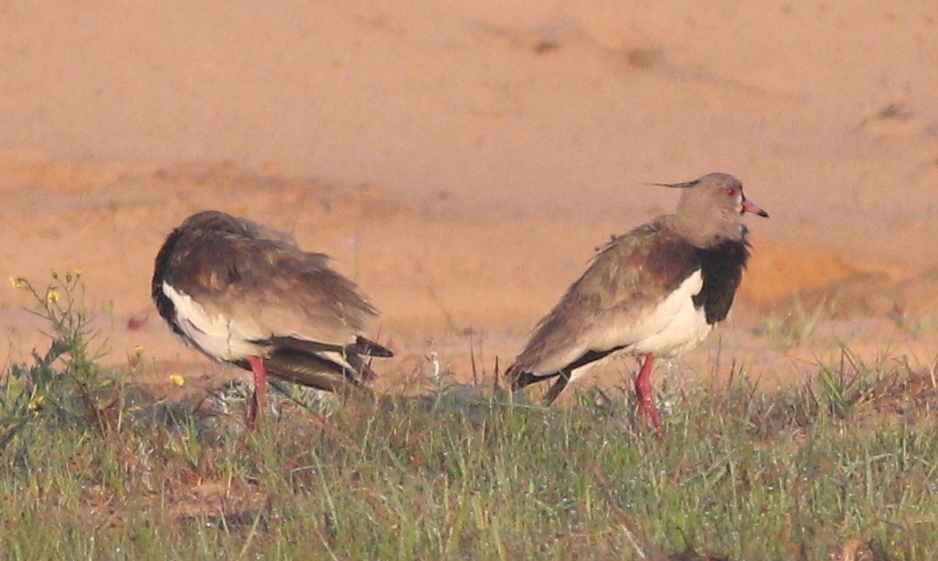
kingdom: Animalia
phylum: Chordata
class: Aves
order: Charadriiformes
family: Charadriidae
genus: Vanellus
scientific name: Vanellus chilensis
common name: Southern lapwing
